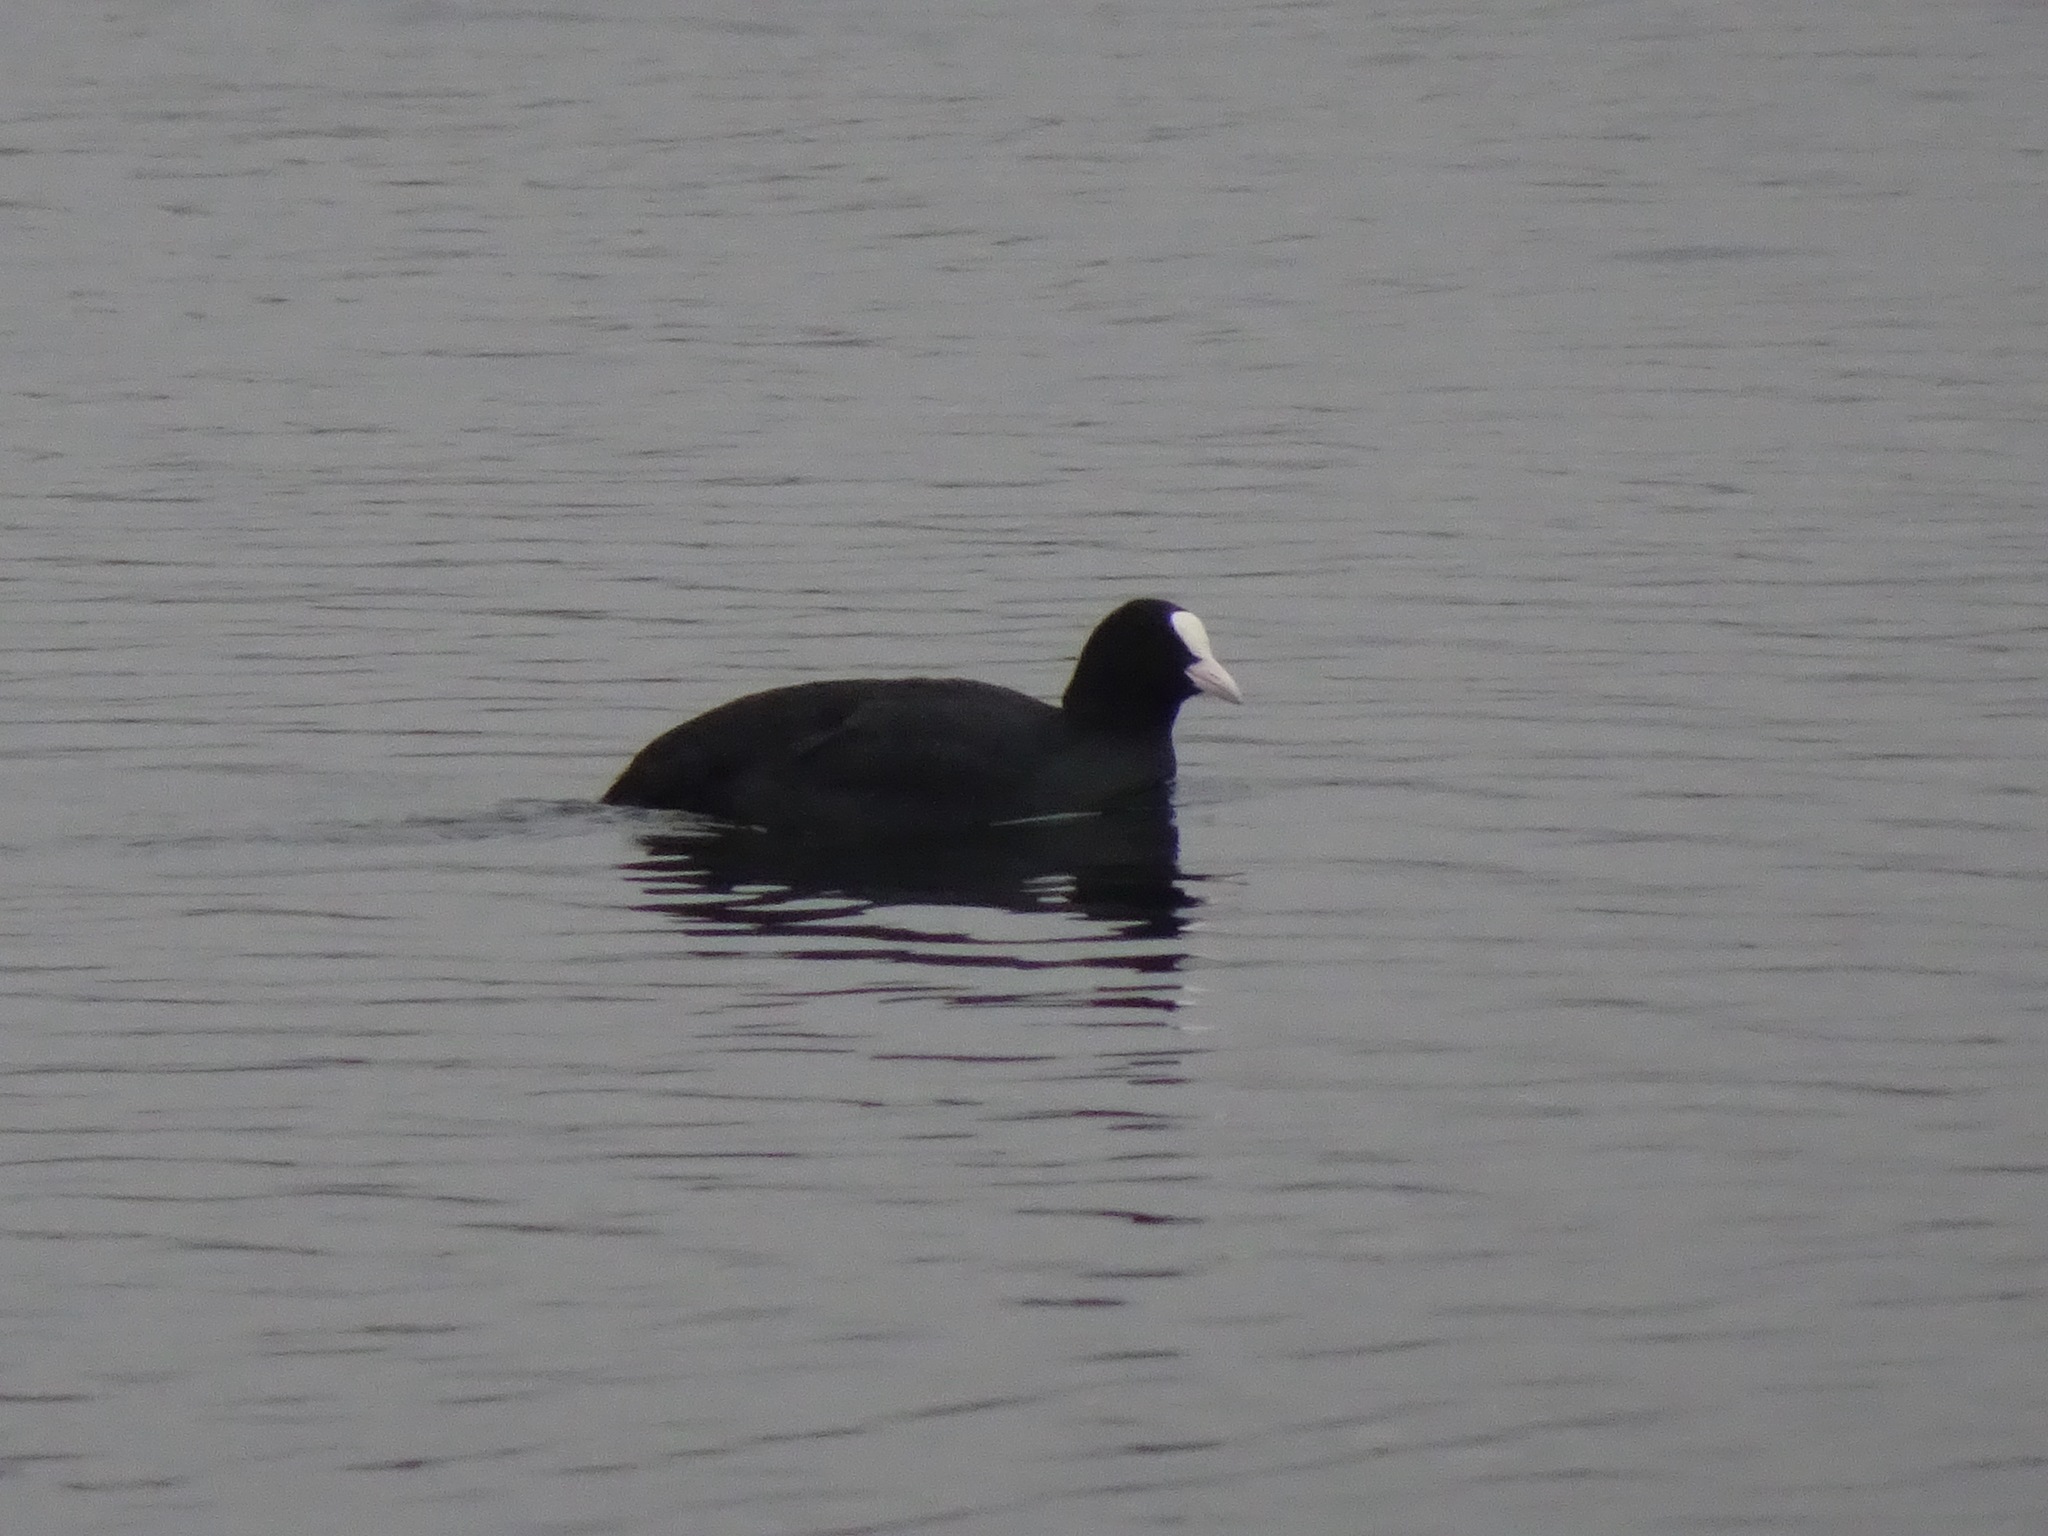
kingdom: Animalia
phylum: Chordata
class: Aves
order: Gruiformes
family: Rallidae
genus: Fulica
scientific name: Fulica atra
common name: Eurasian coot
